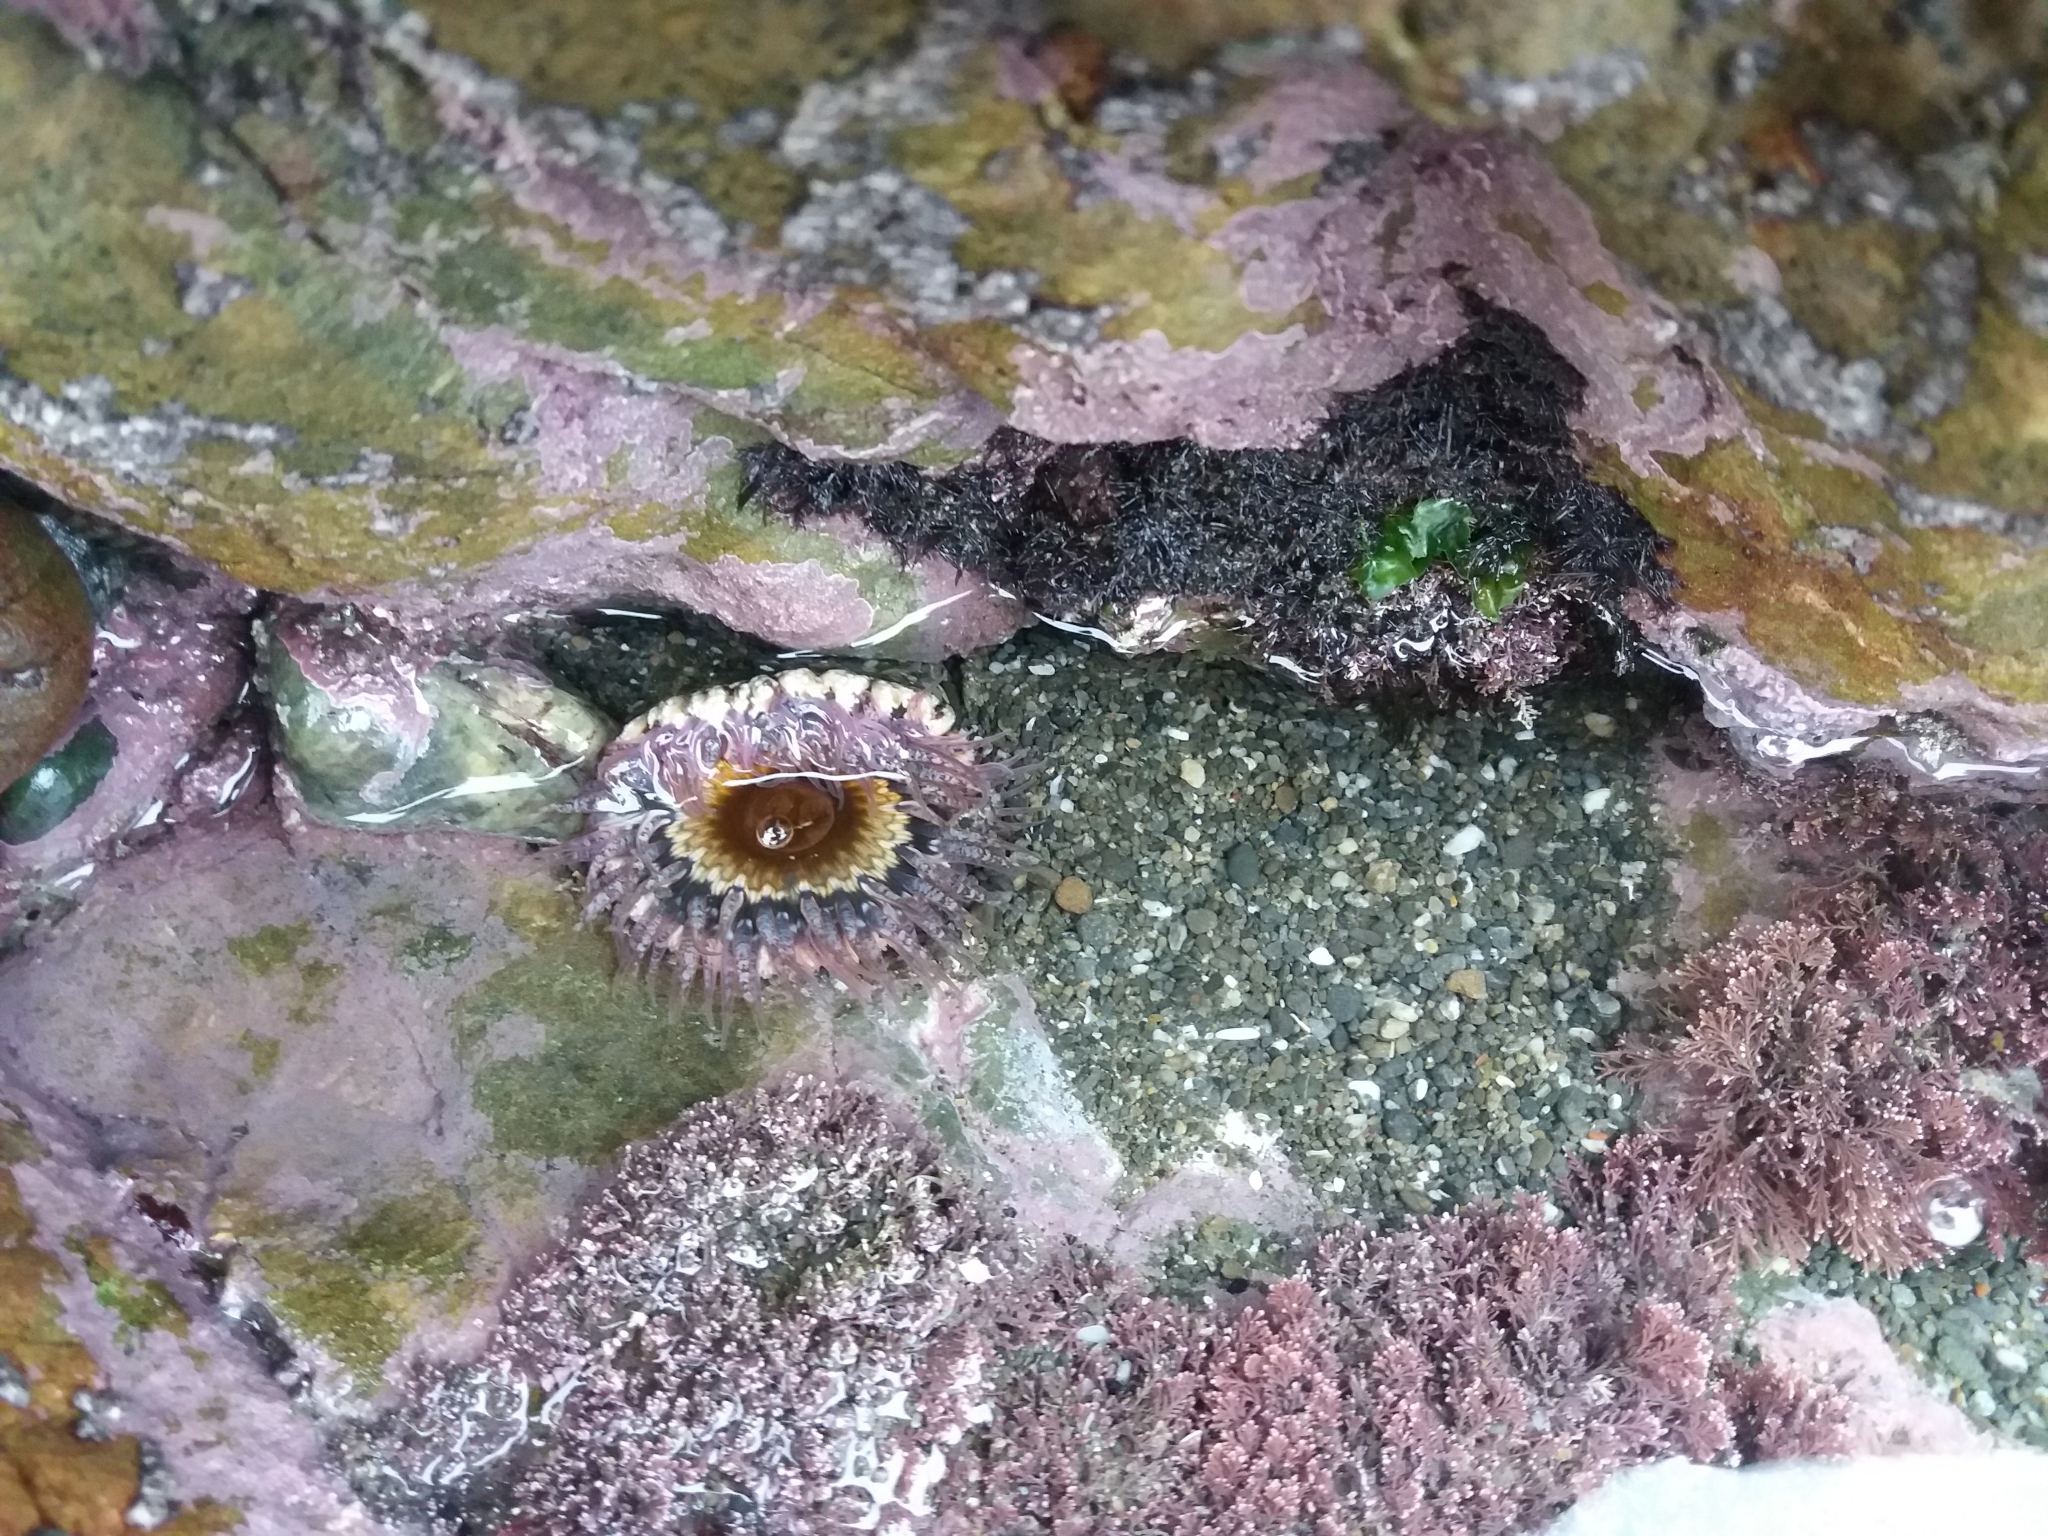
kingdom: Animalia
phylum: Cnidaria
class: Anthozoa
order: Actiniaria
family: Actiniidae
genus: Oulactis
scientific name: Oulactis muscosa
